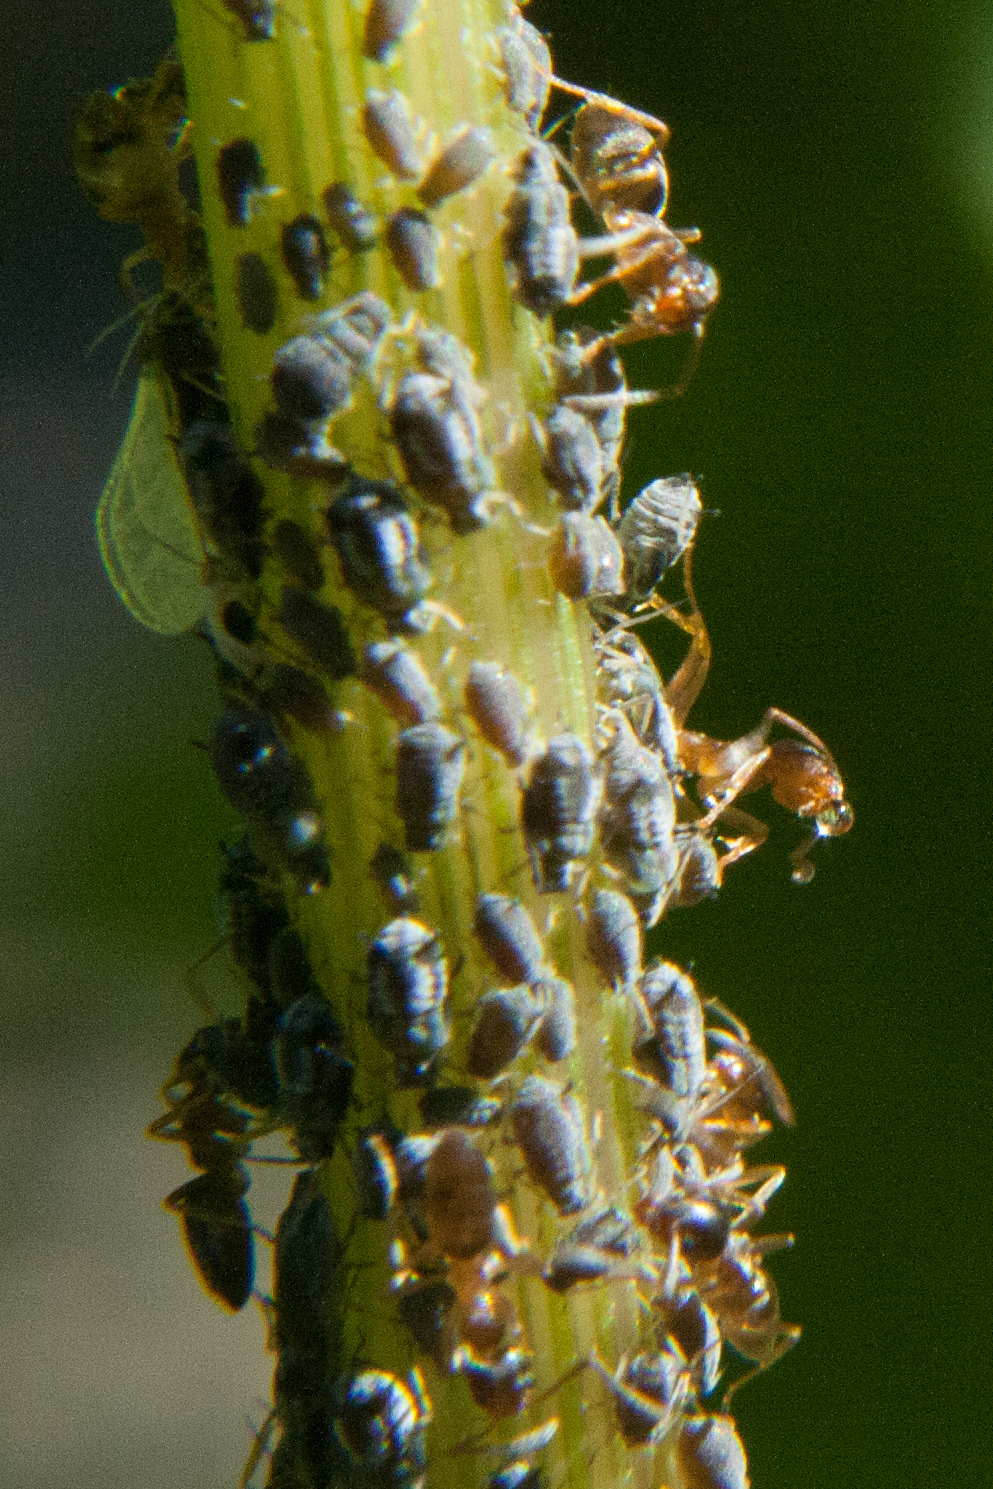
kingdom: Animalia
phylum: Arthropoda
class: Insecta
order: Hymenoptera
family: Formicidae
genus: Tapinoma
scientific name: Tapinoma sessile
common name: Odorous house ant
